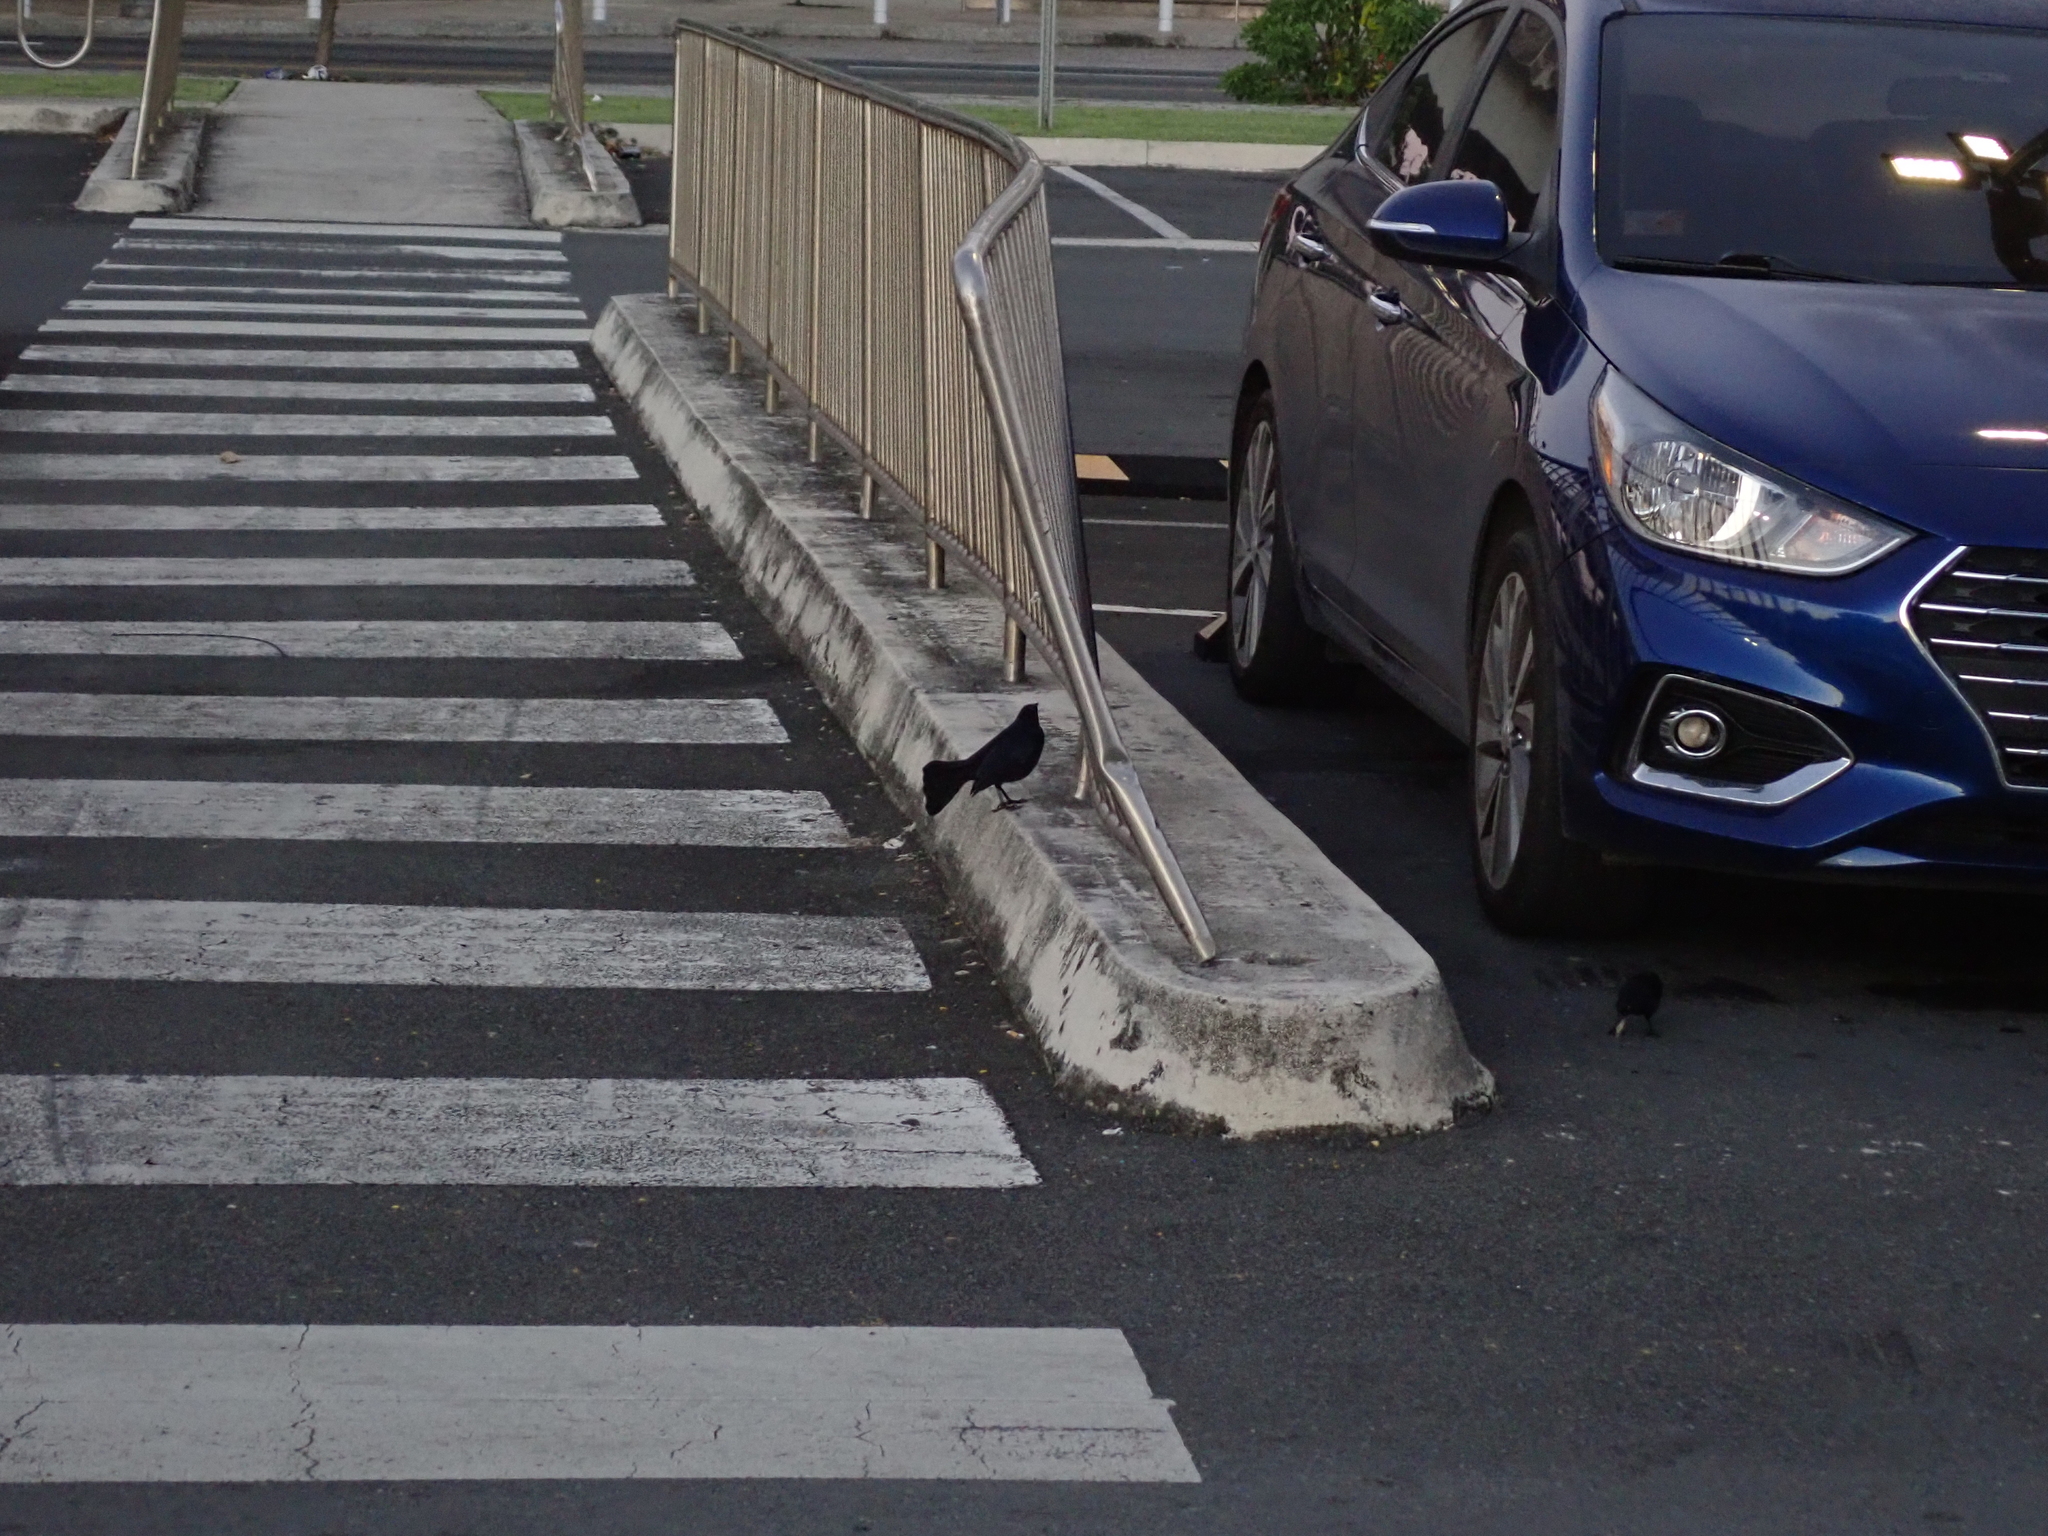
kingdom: Animalia
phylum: Chordata
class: Aves
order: Passeriformes
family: Icteridae
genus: Quiscalus
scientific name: Quiscalus niger
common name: Greater antillean grackle
